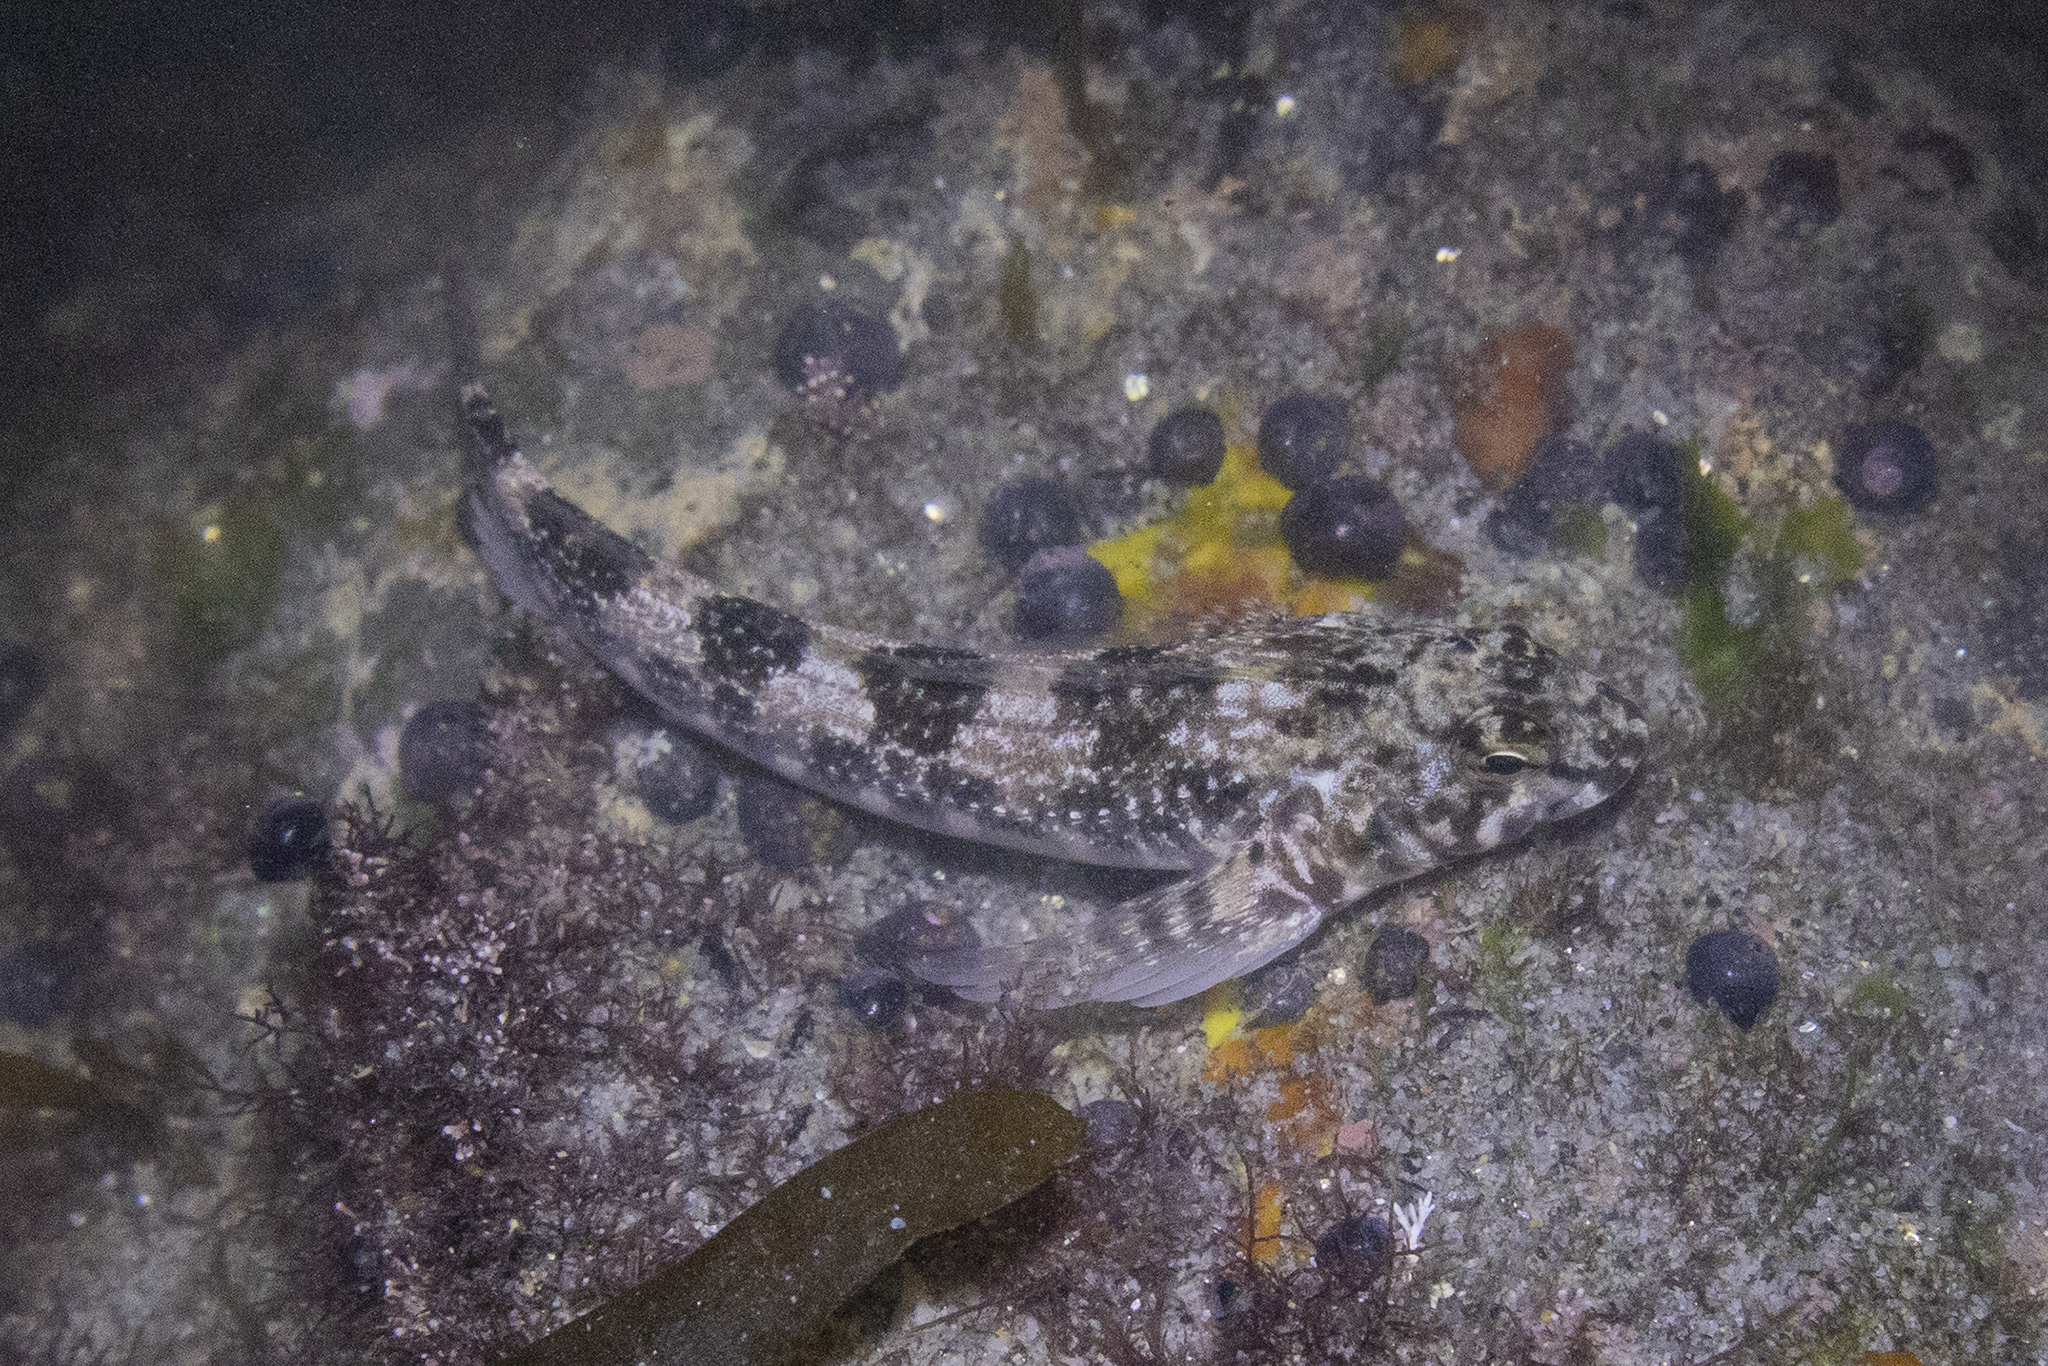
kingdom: Animalia
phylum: Chordata
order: Perciformes
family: Tripterygiidae
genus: Bellapiscis
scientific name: Bellapiscis medius
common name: Twister
